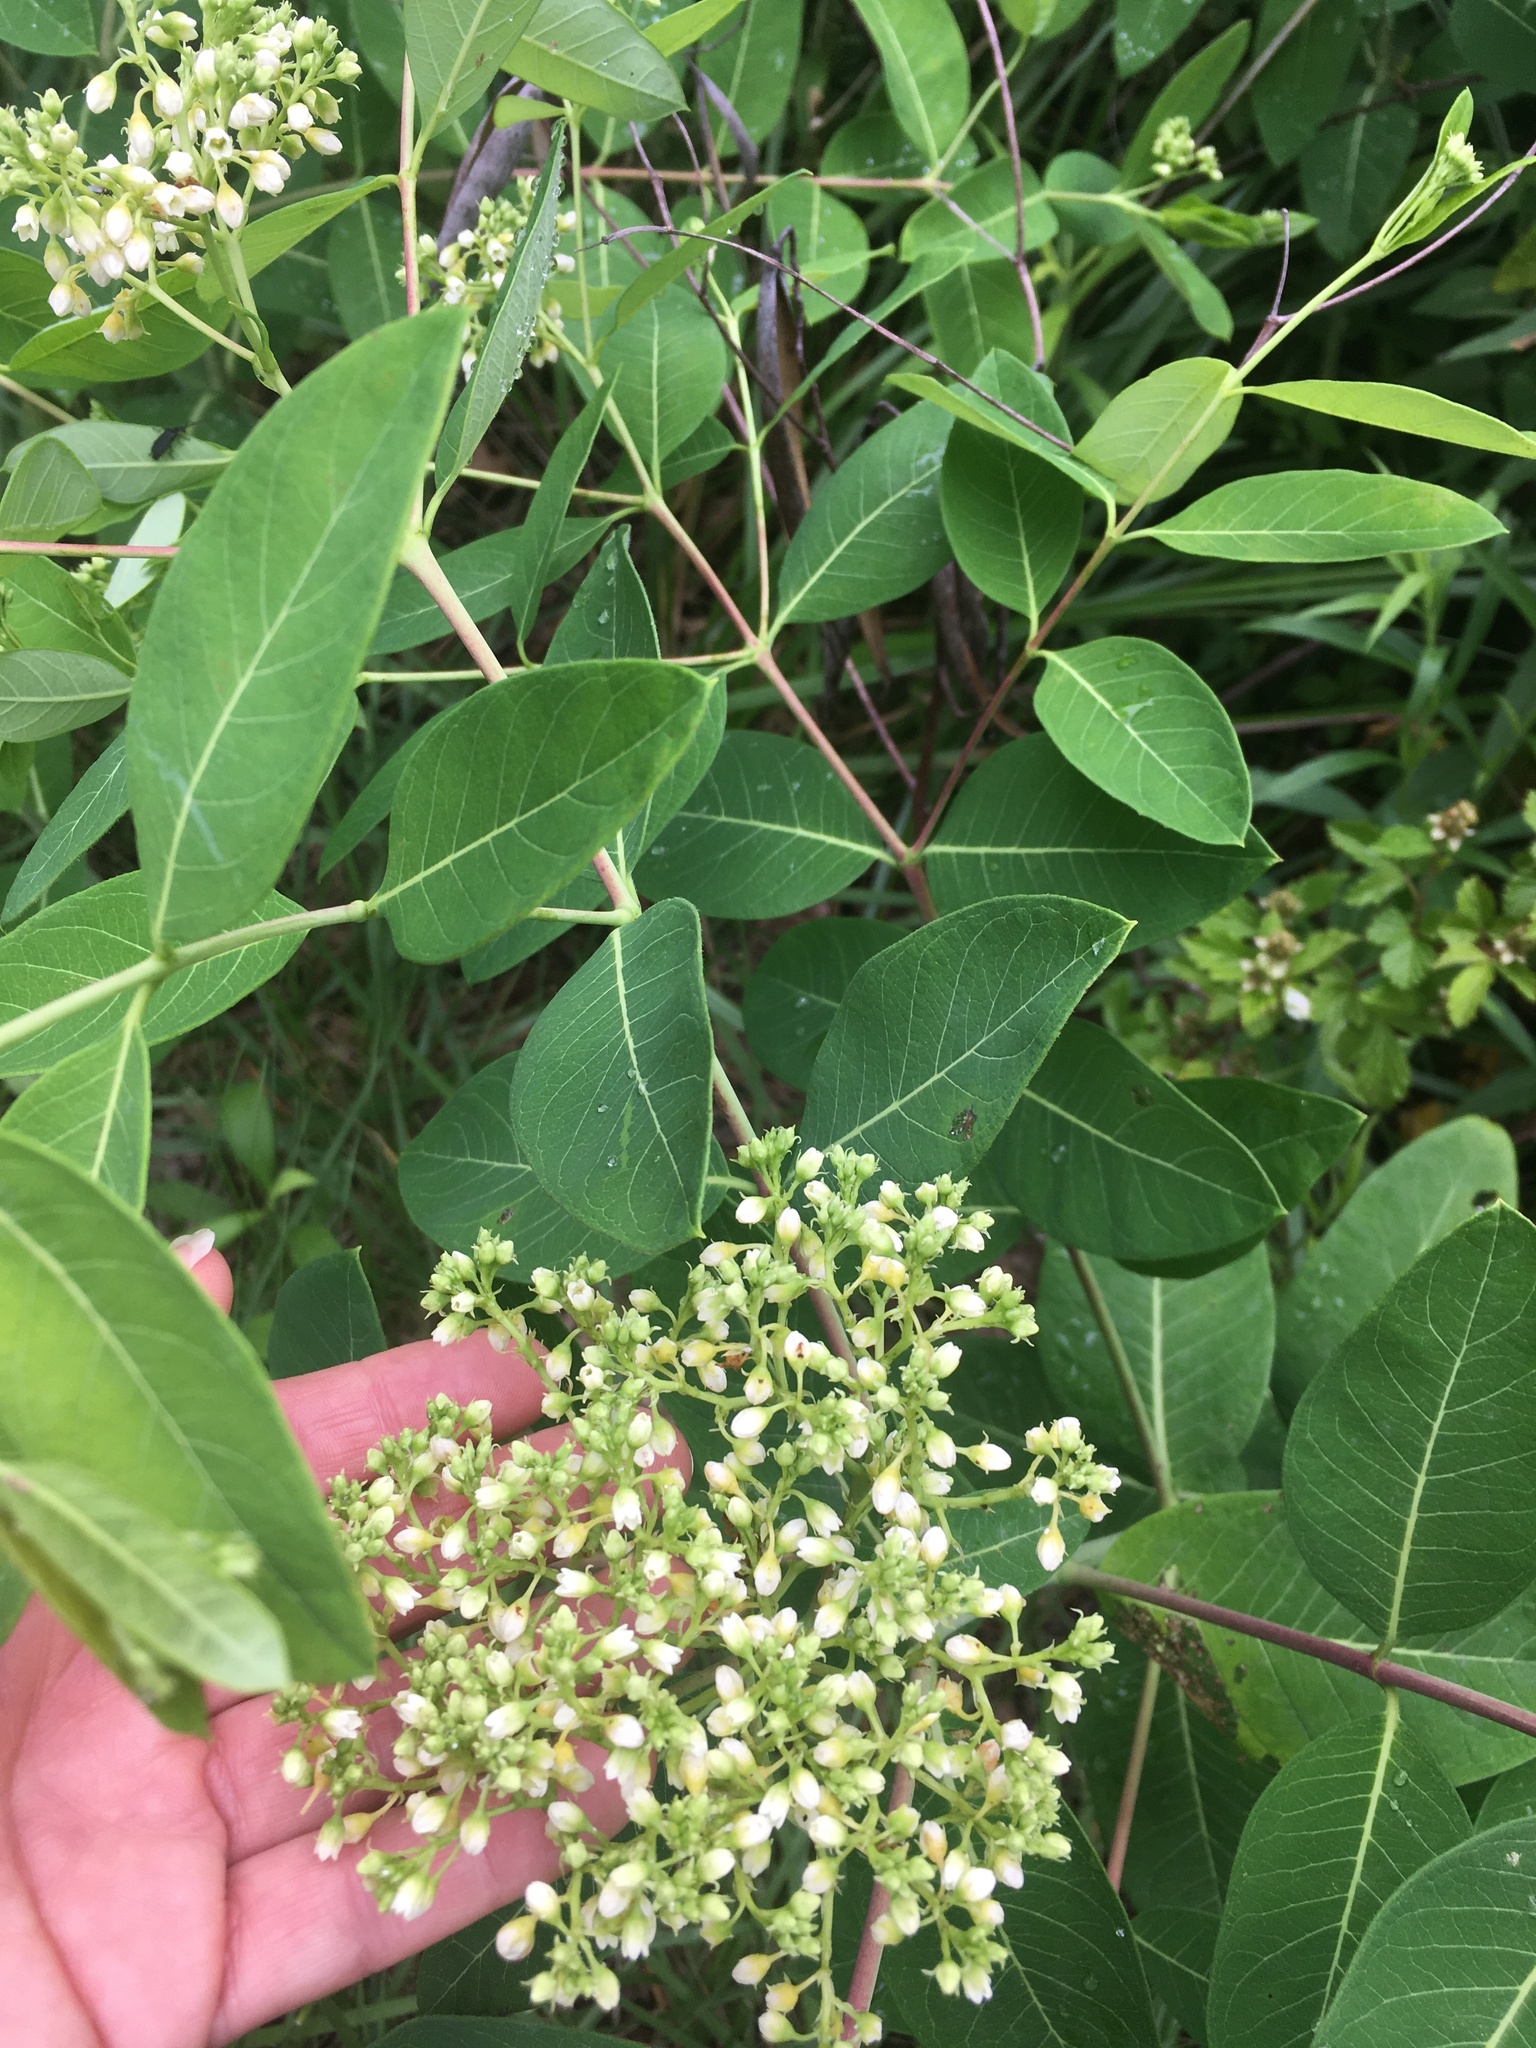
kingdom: Plantae
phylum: Tracheophyta
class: Magnoliopsida
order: Gentianales
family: Apocynaceae
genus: Apocynum
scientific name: Apocynum cannabinum
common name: Hemp dogbane
